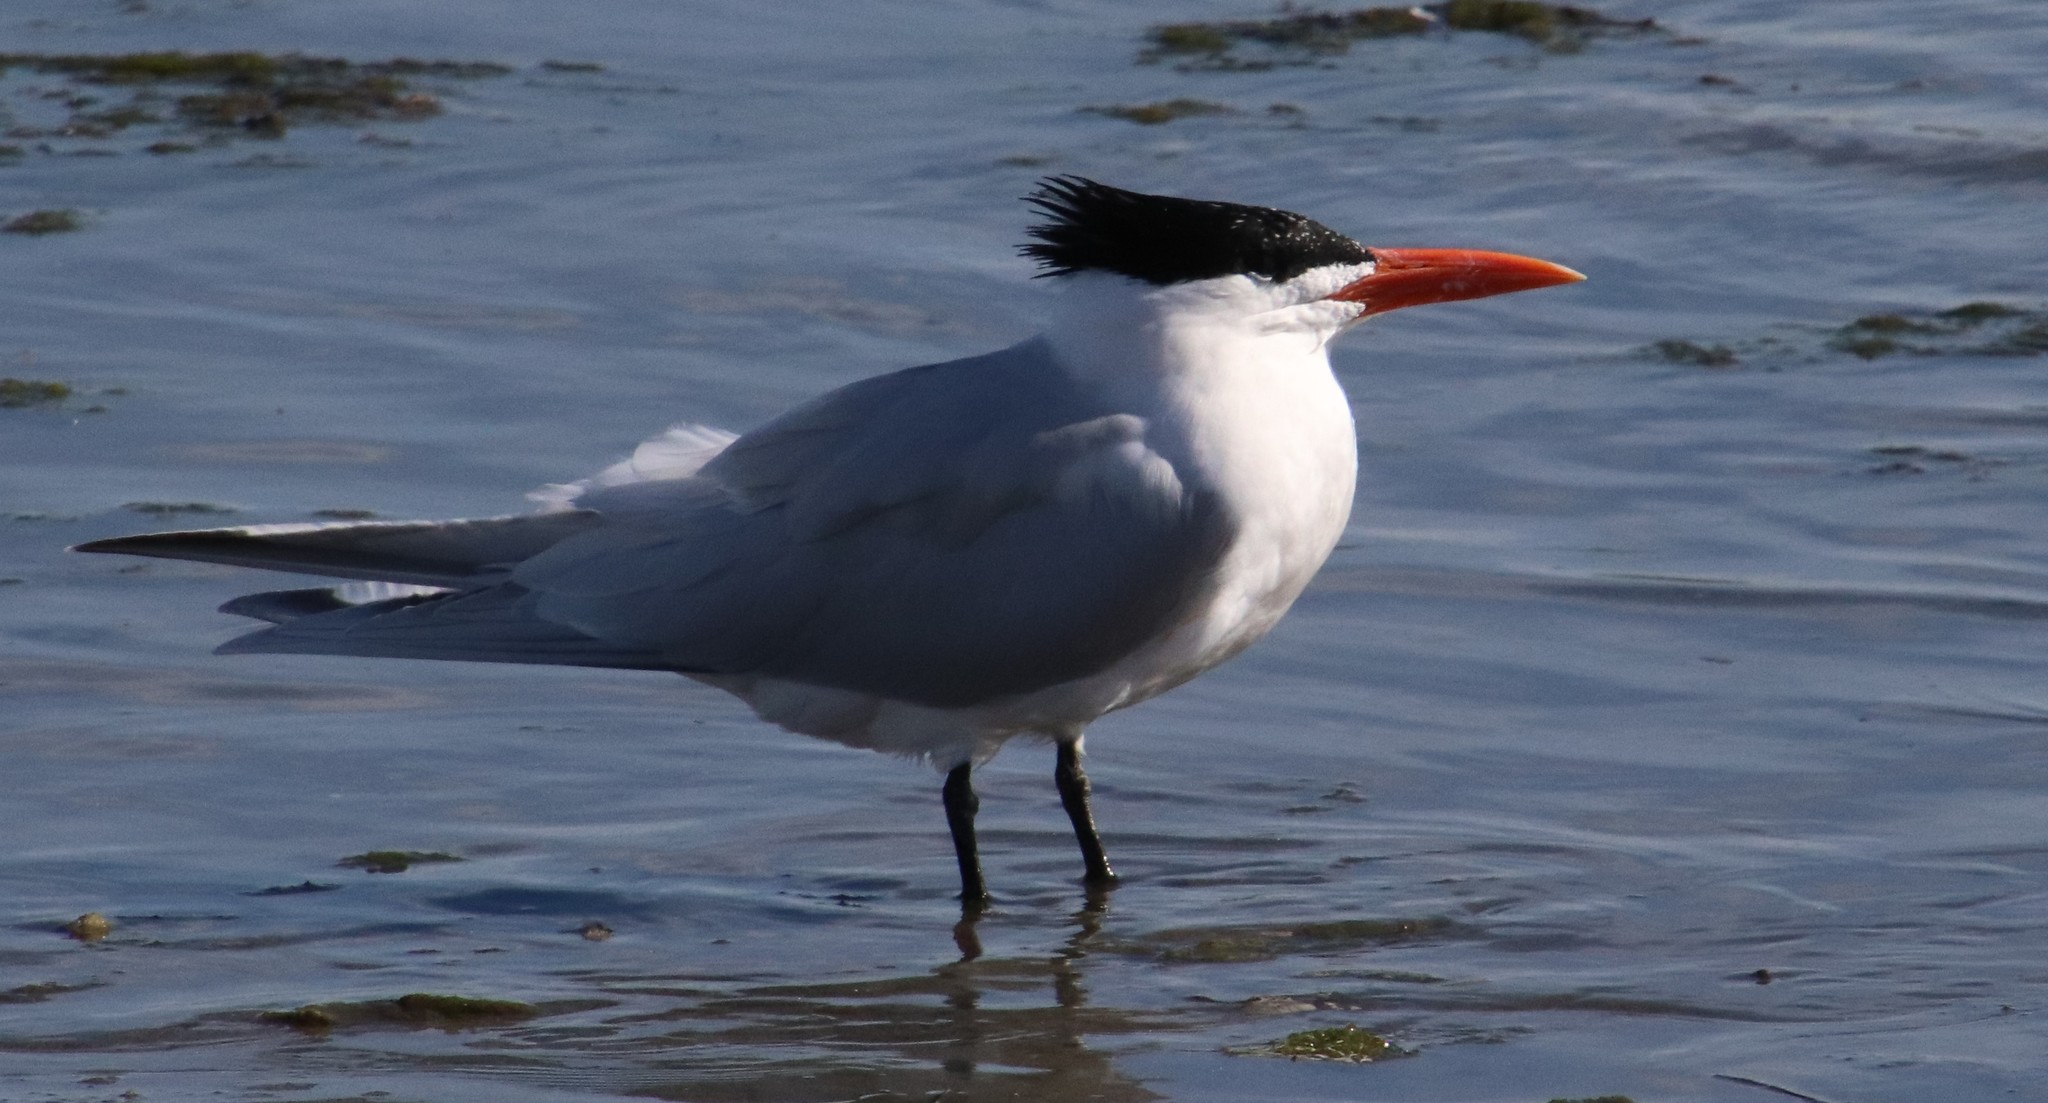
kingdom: Animalia
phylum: Chordata
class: Aves
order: Charadriiformes
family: Laridae
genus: Thalasseus
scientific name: Thalasseus maximus
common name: Royal tern
